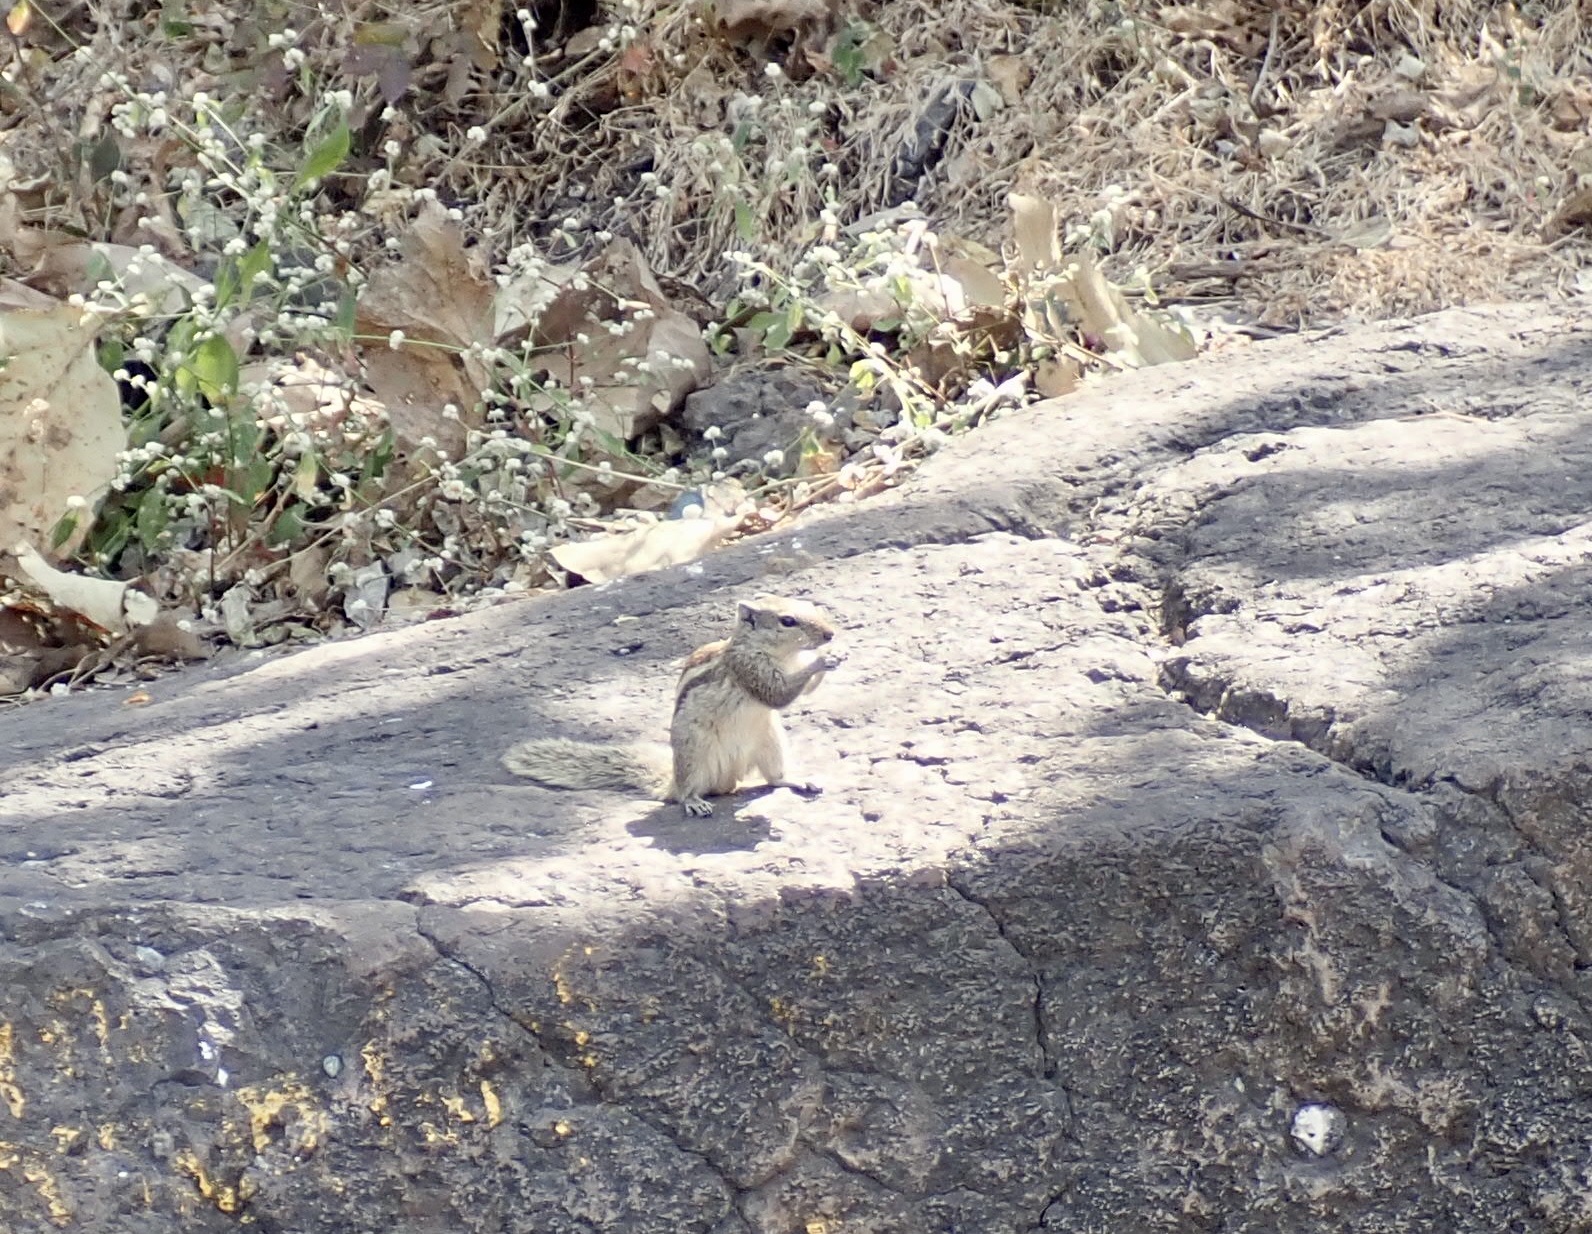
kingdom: Animalia
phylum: Chordata
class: Mammalia
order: Rodentia
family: Sciuridae
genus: Funambulus
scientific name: Funambulus pennantii
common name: Northern palm squirrel
